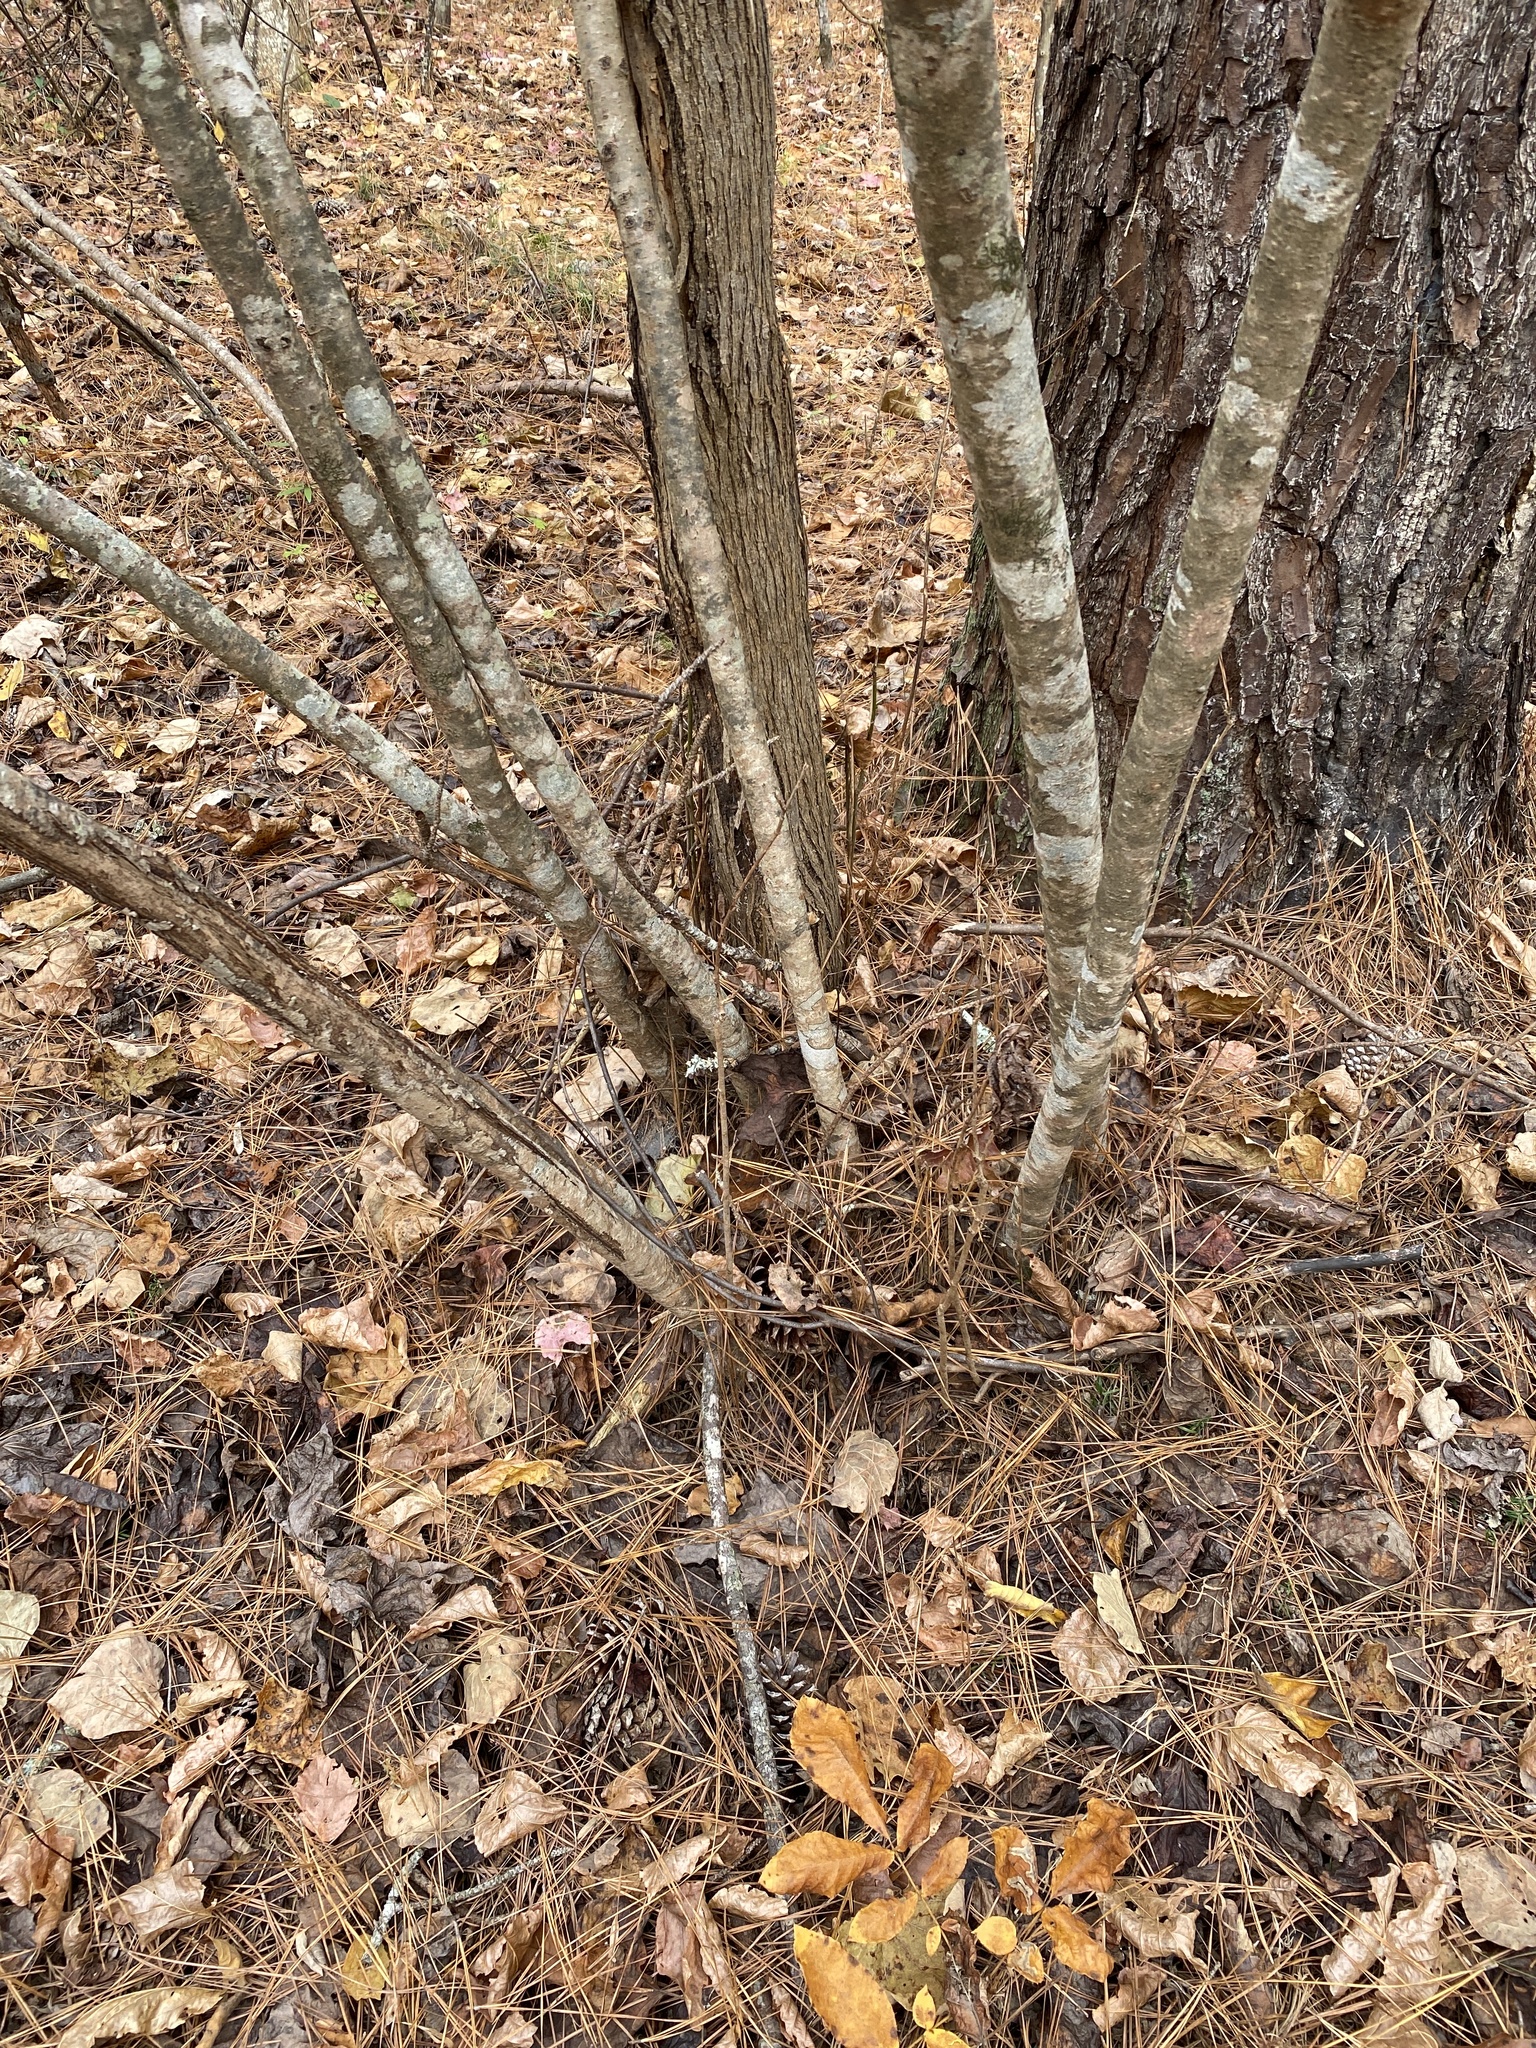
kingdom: Plantae
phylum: Tracheophyta
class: Magnoliopsida
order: Saxifragales
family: Hamamelidaceae
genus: Hamamelis
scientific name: Hamamelis virginiana
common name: Witch-hazel
